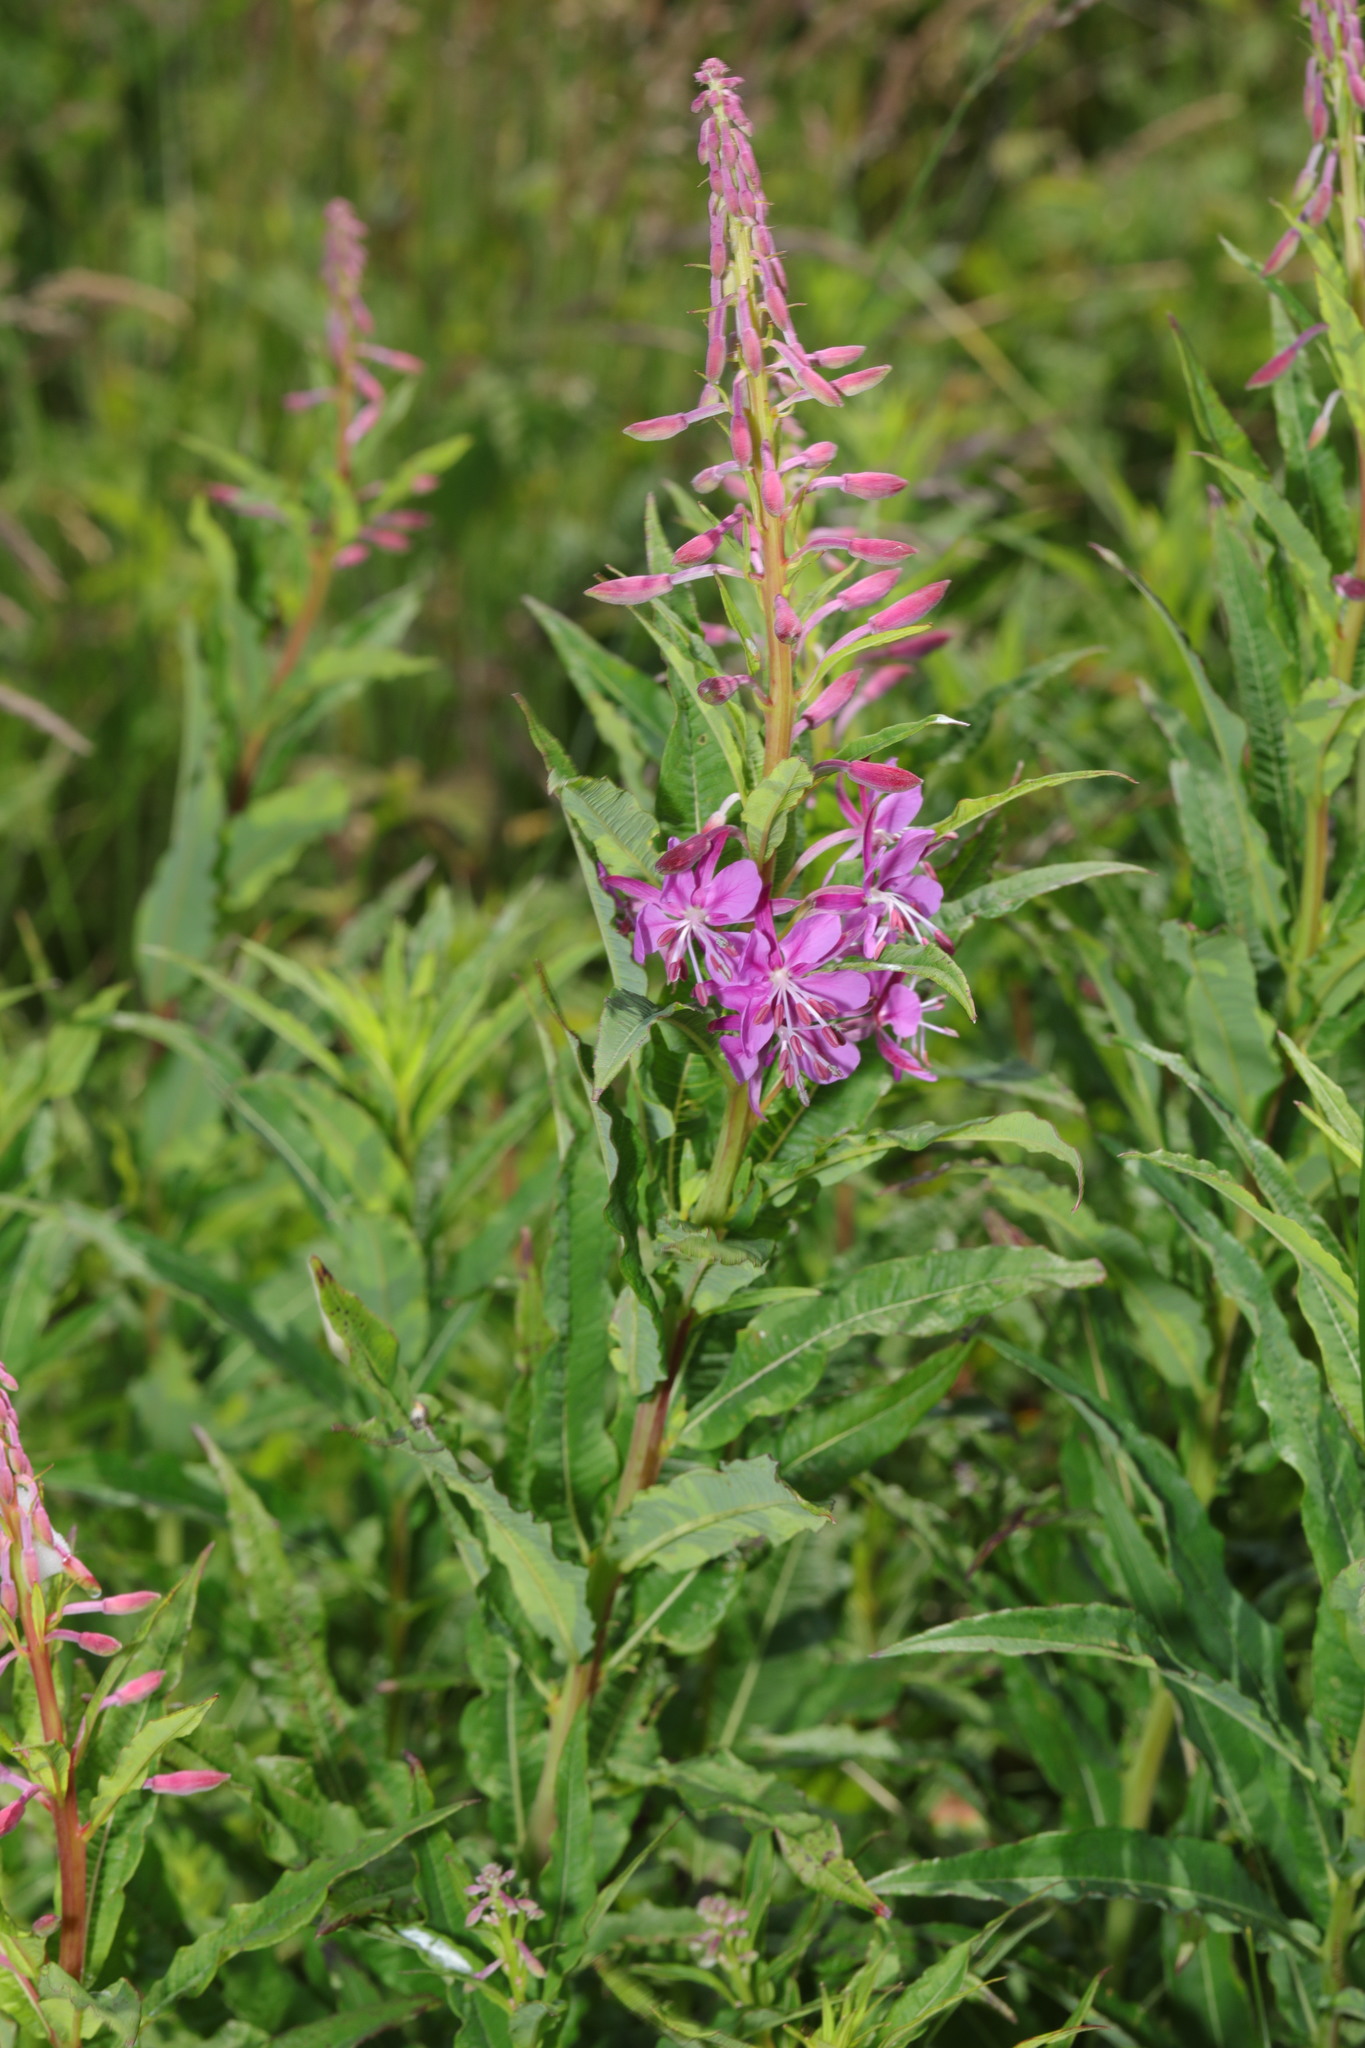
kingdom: Plantae
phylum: Tracheophyta
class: Magnoliopsida
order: Myrtales
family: Onagraceae
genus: Chamaenerion
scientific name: Chamaenerion angustifolium
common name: Fireweed
